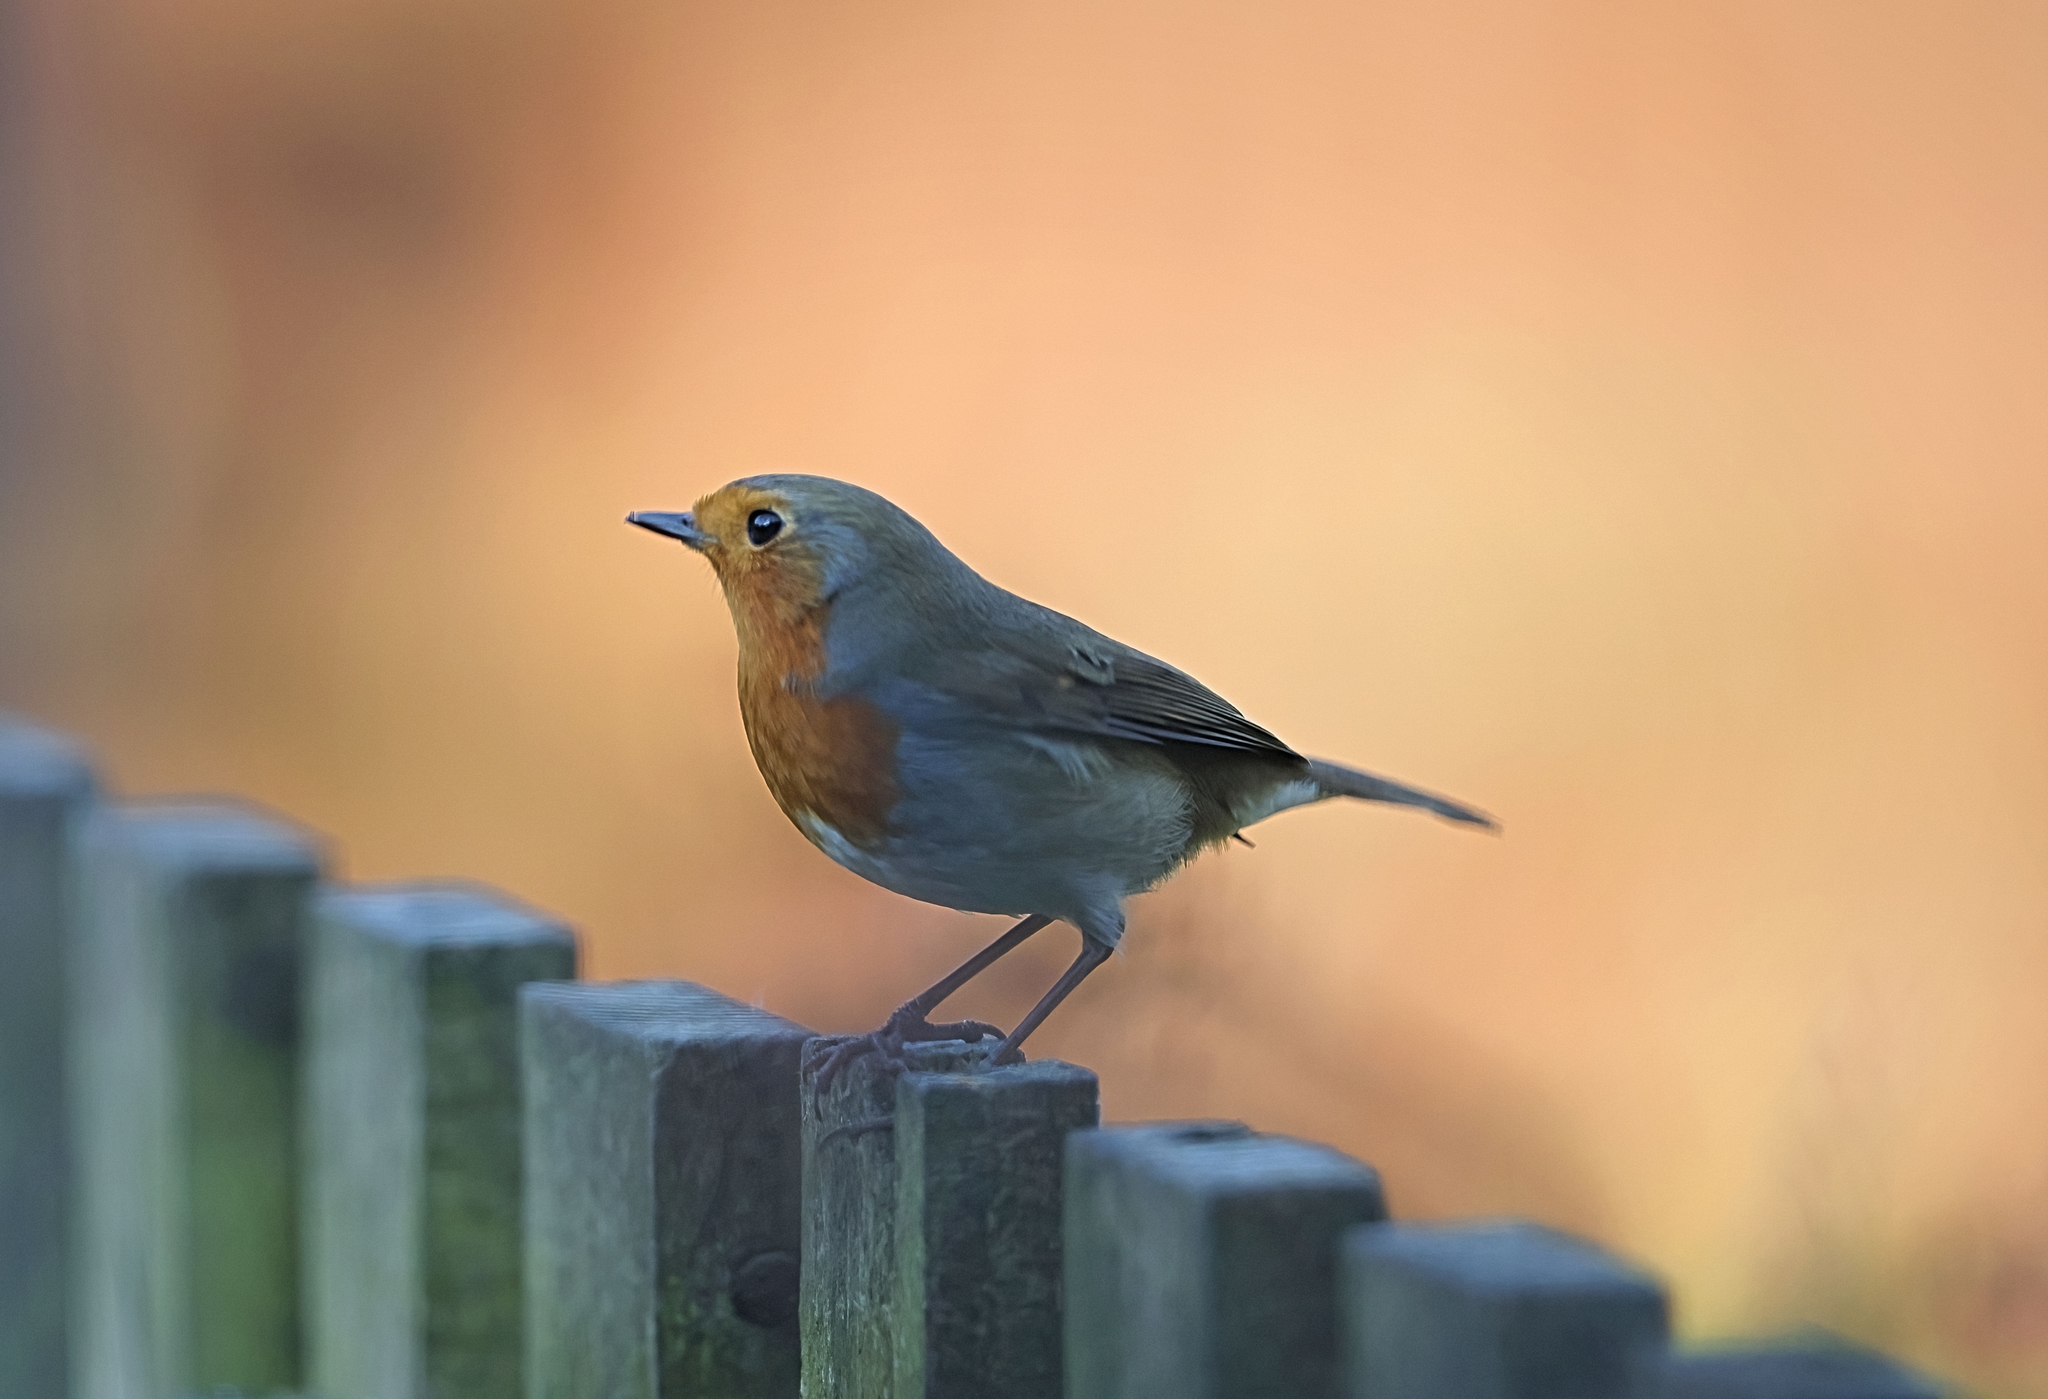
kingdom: Animalia
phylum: Chordata
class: Aves
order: Passeriformes
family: Muscicapidae
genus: Erithacus
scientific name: Erithacus rubecula
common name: European robin
